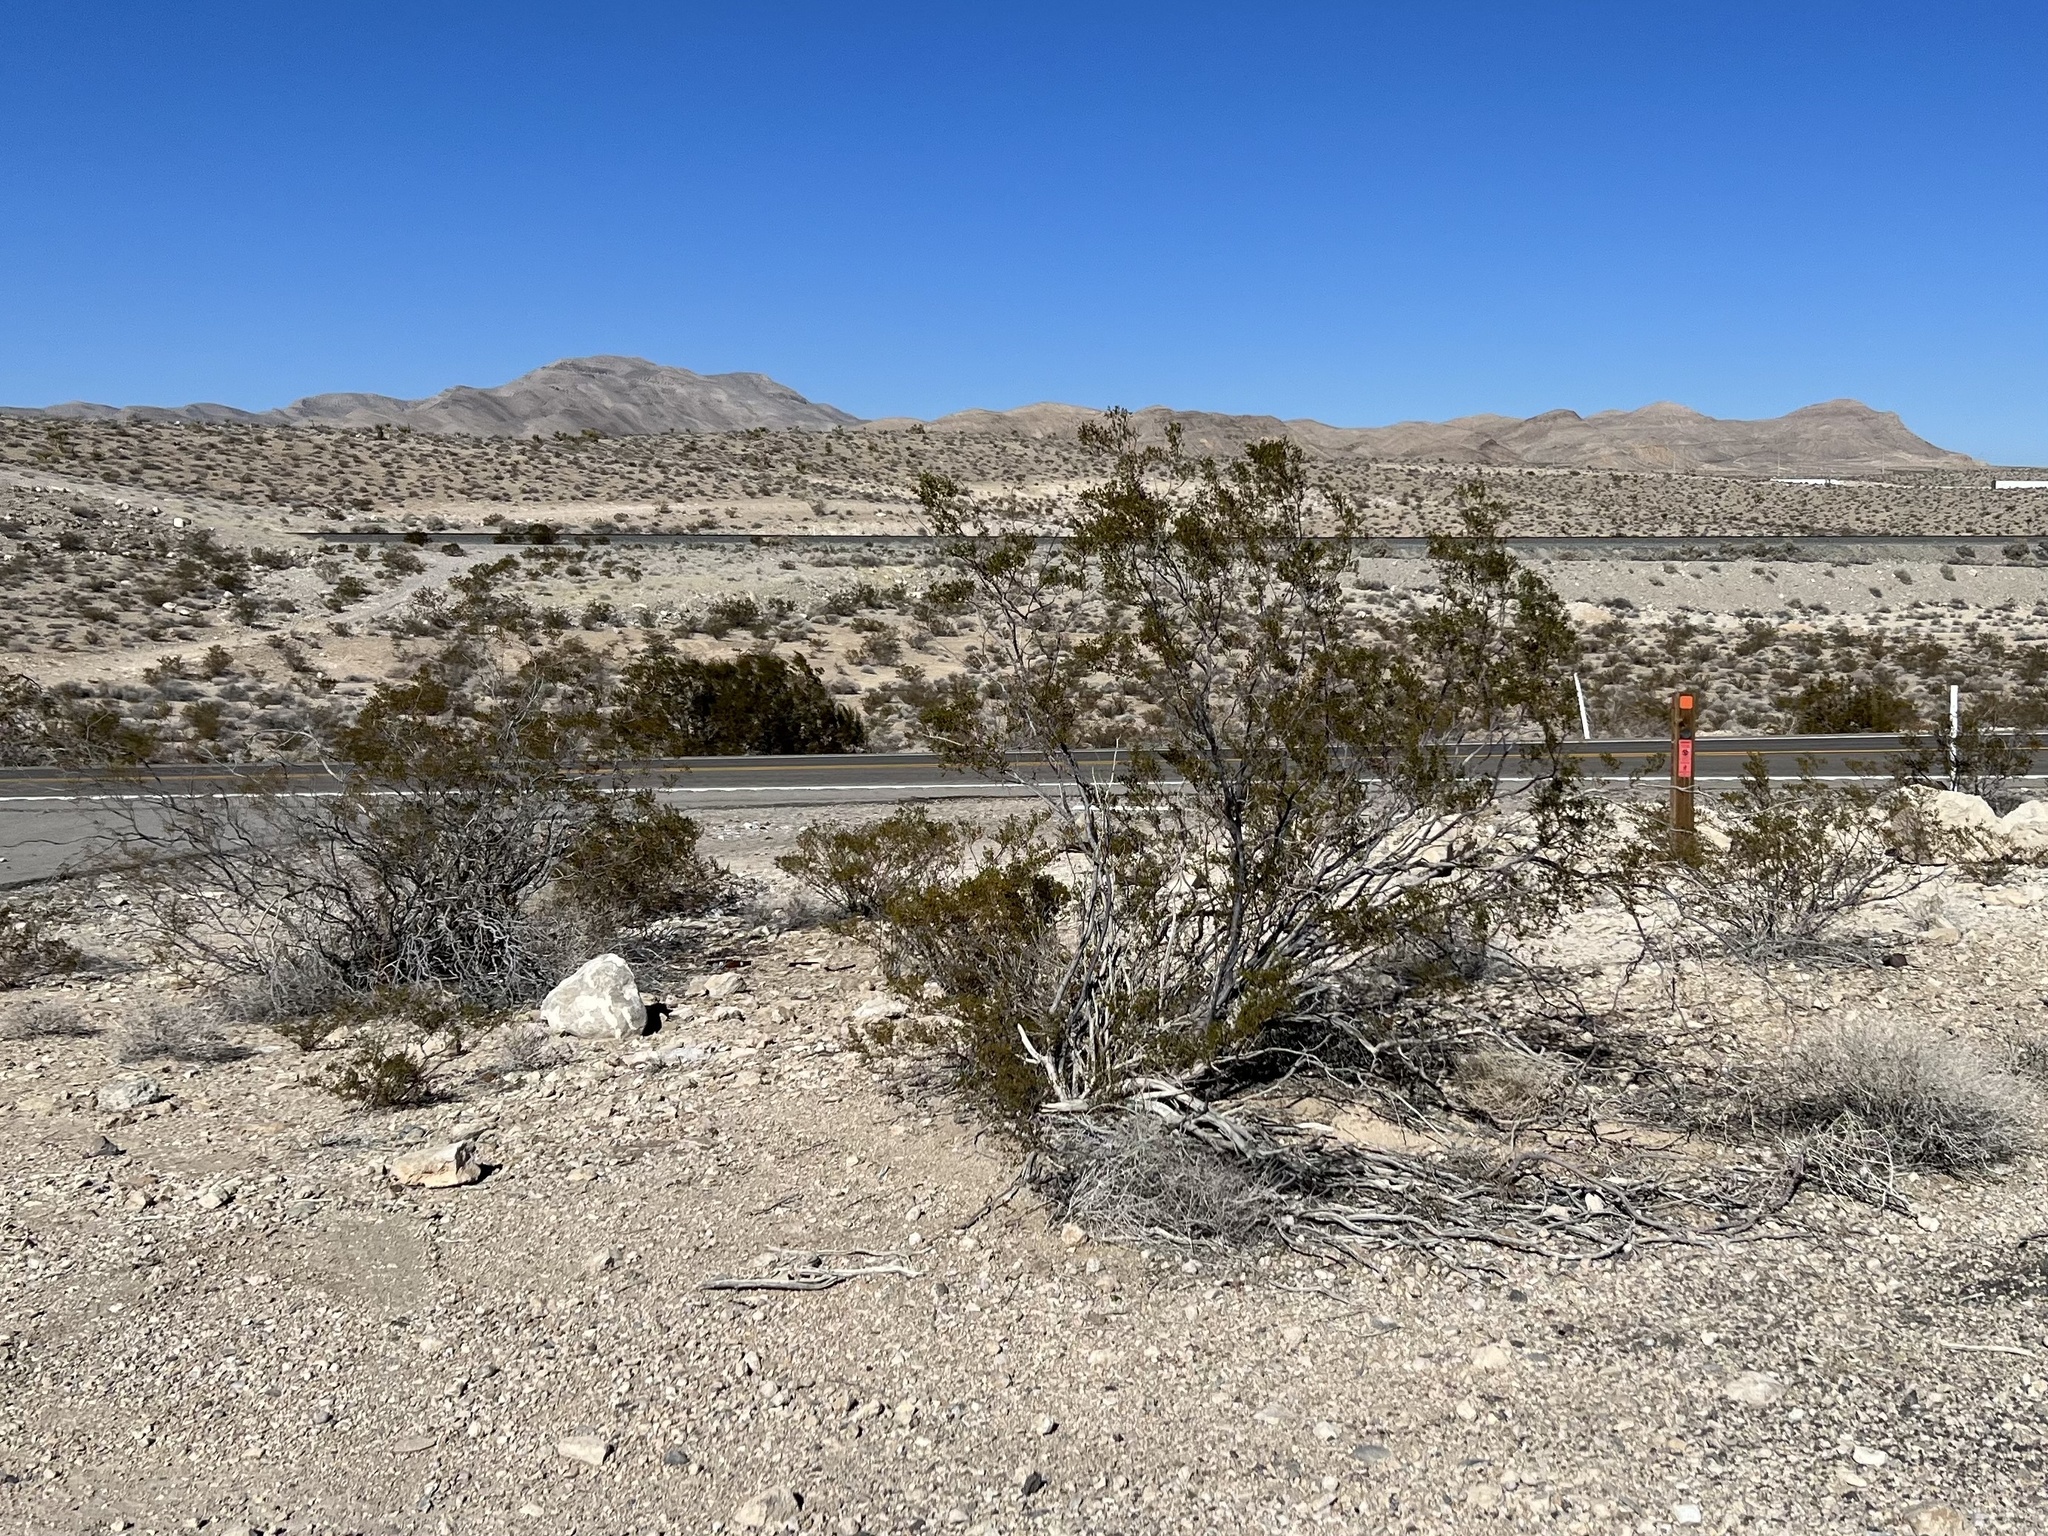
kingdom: Plantae
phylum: Tracheophyta
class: Magnoliopsida
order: Zygophyllales
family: Zygophyllaceae
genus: Larrea
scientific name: Larrea tridentata
